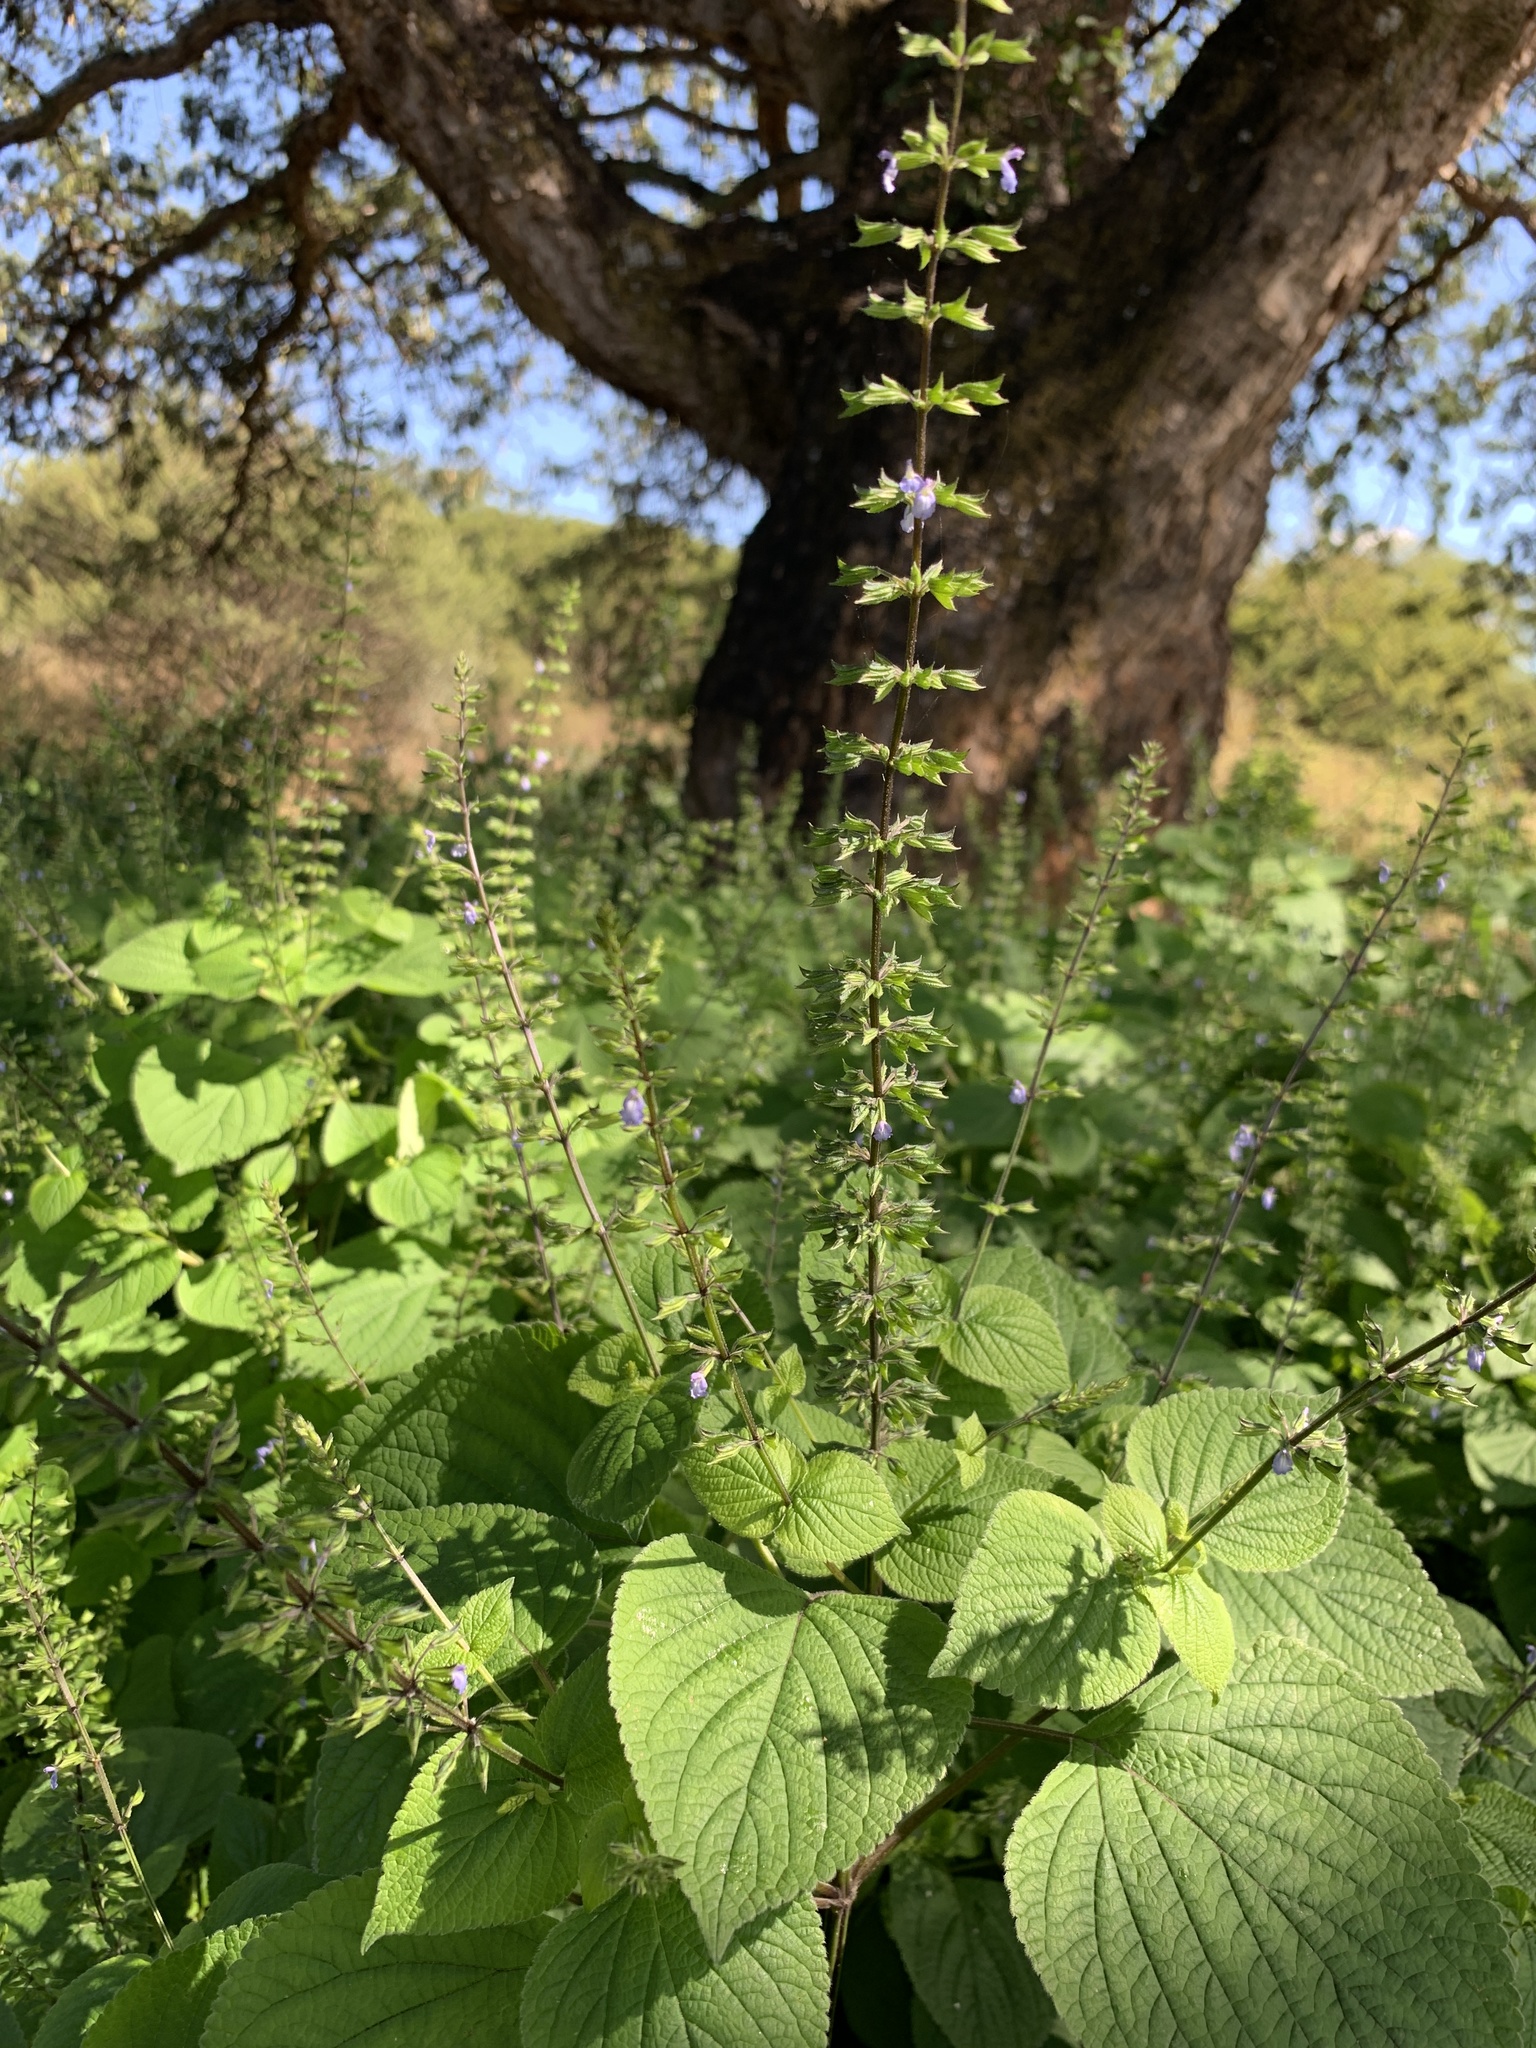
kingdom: Plantae
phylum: Tracheophyta
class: Magnoliopsida
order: Lamiales
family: Lamiaceae
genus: Salvia
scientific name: Salvia tiliifolia
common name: Lindenleaf sage
